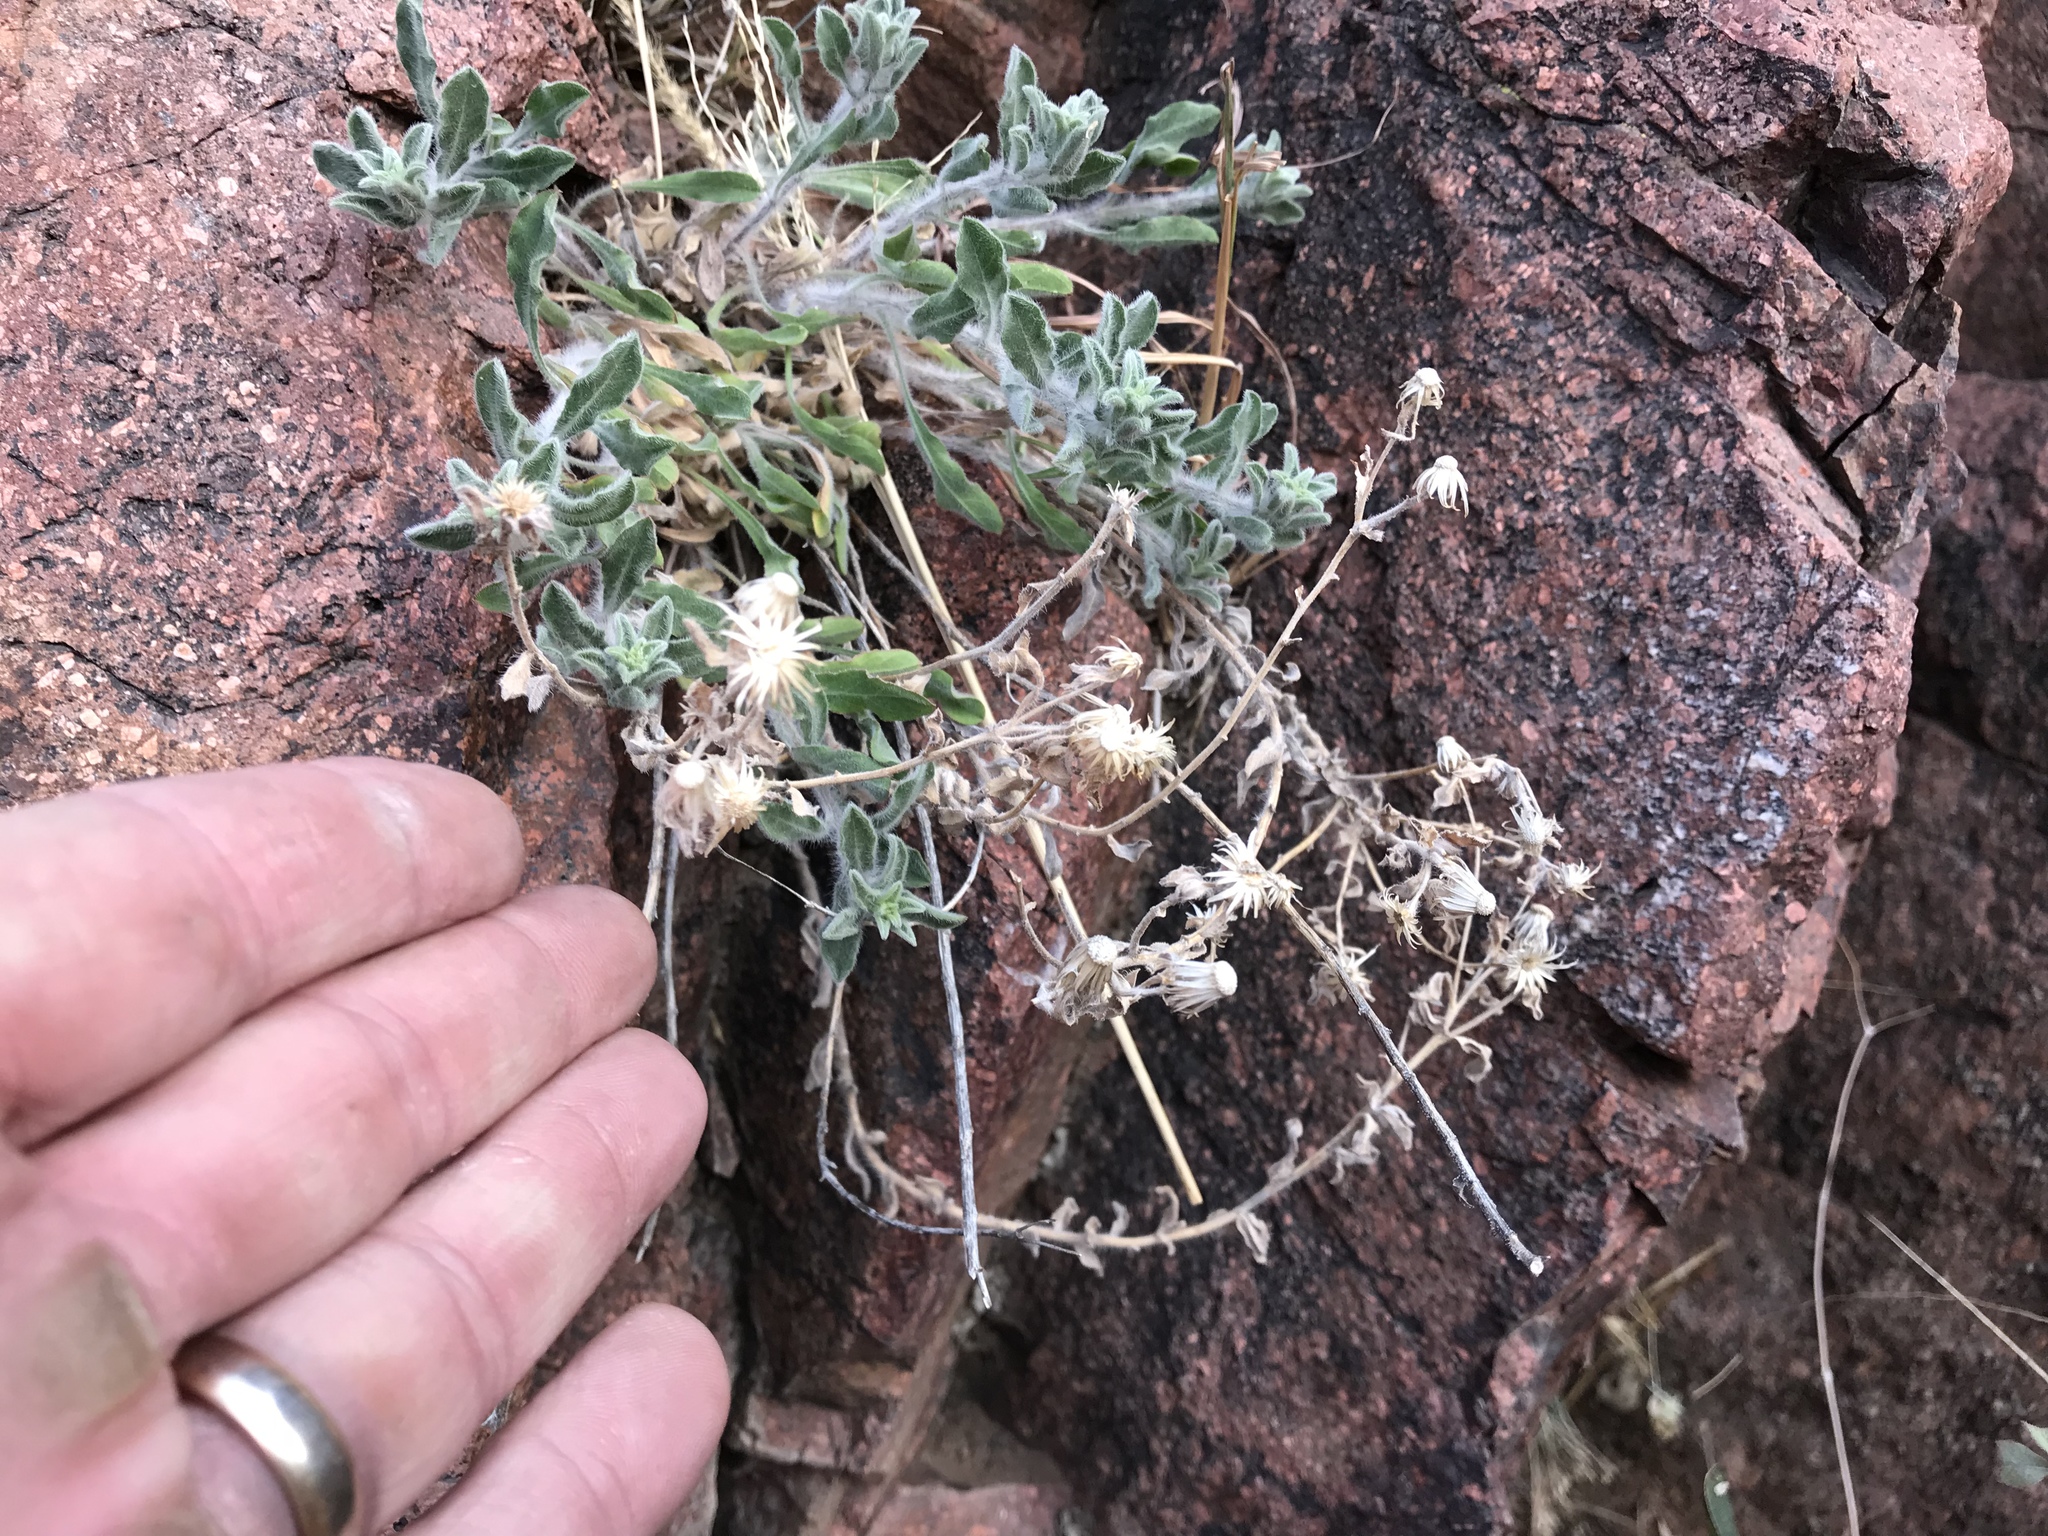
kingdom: Plantae
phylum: Tracheophyta
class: Magnoliopsida
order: Asterales
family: Asteraceae
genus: Heterotheca
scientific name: Heterotheca fulcrata
